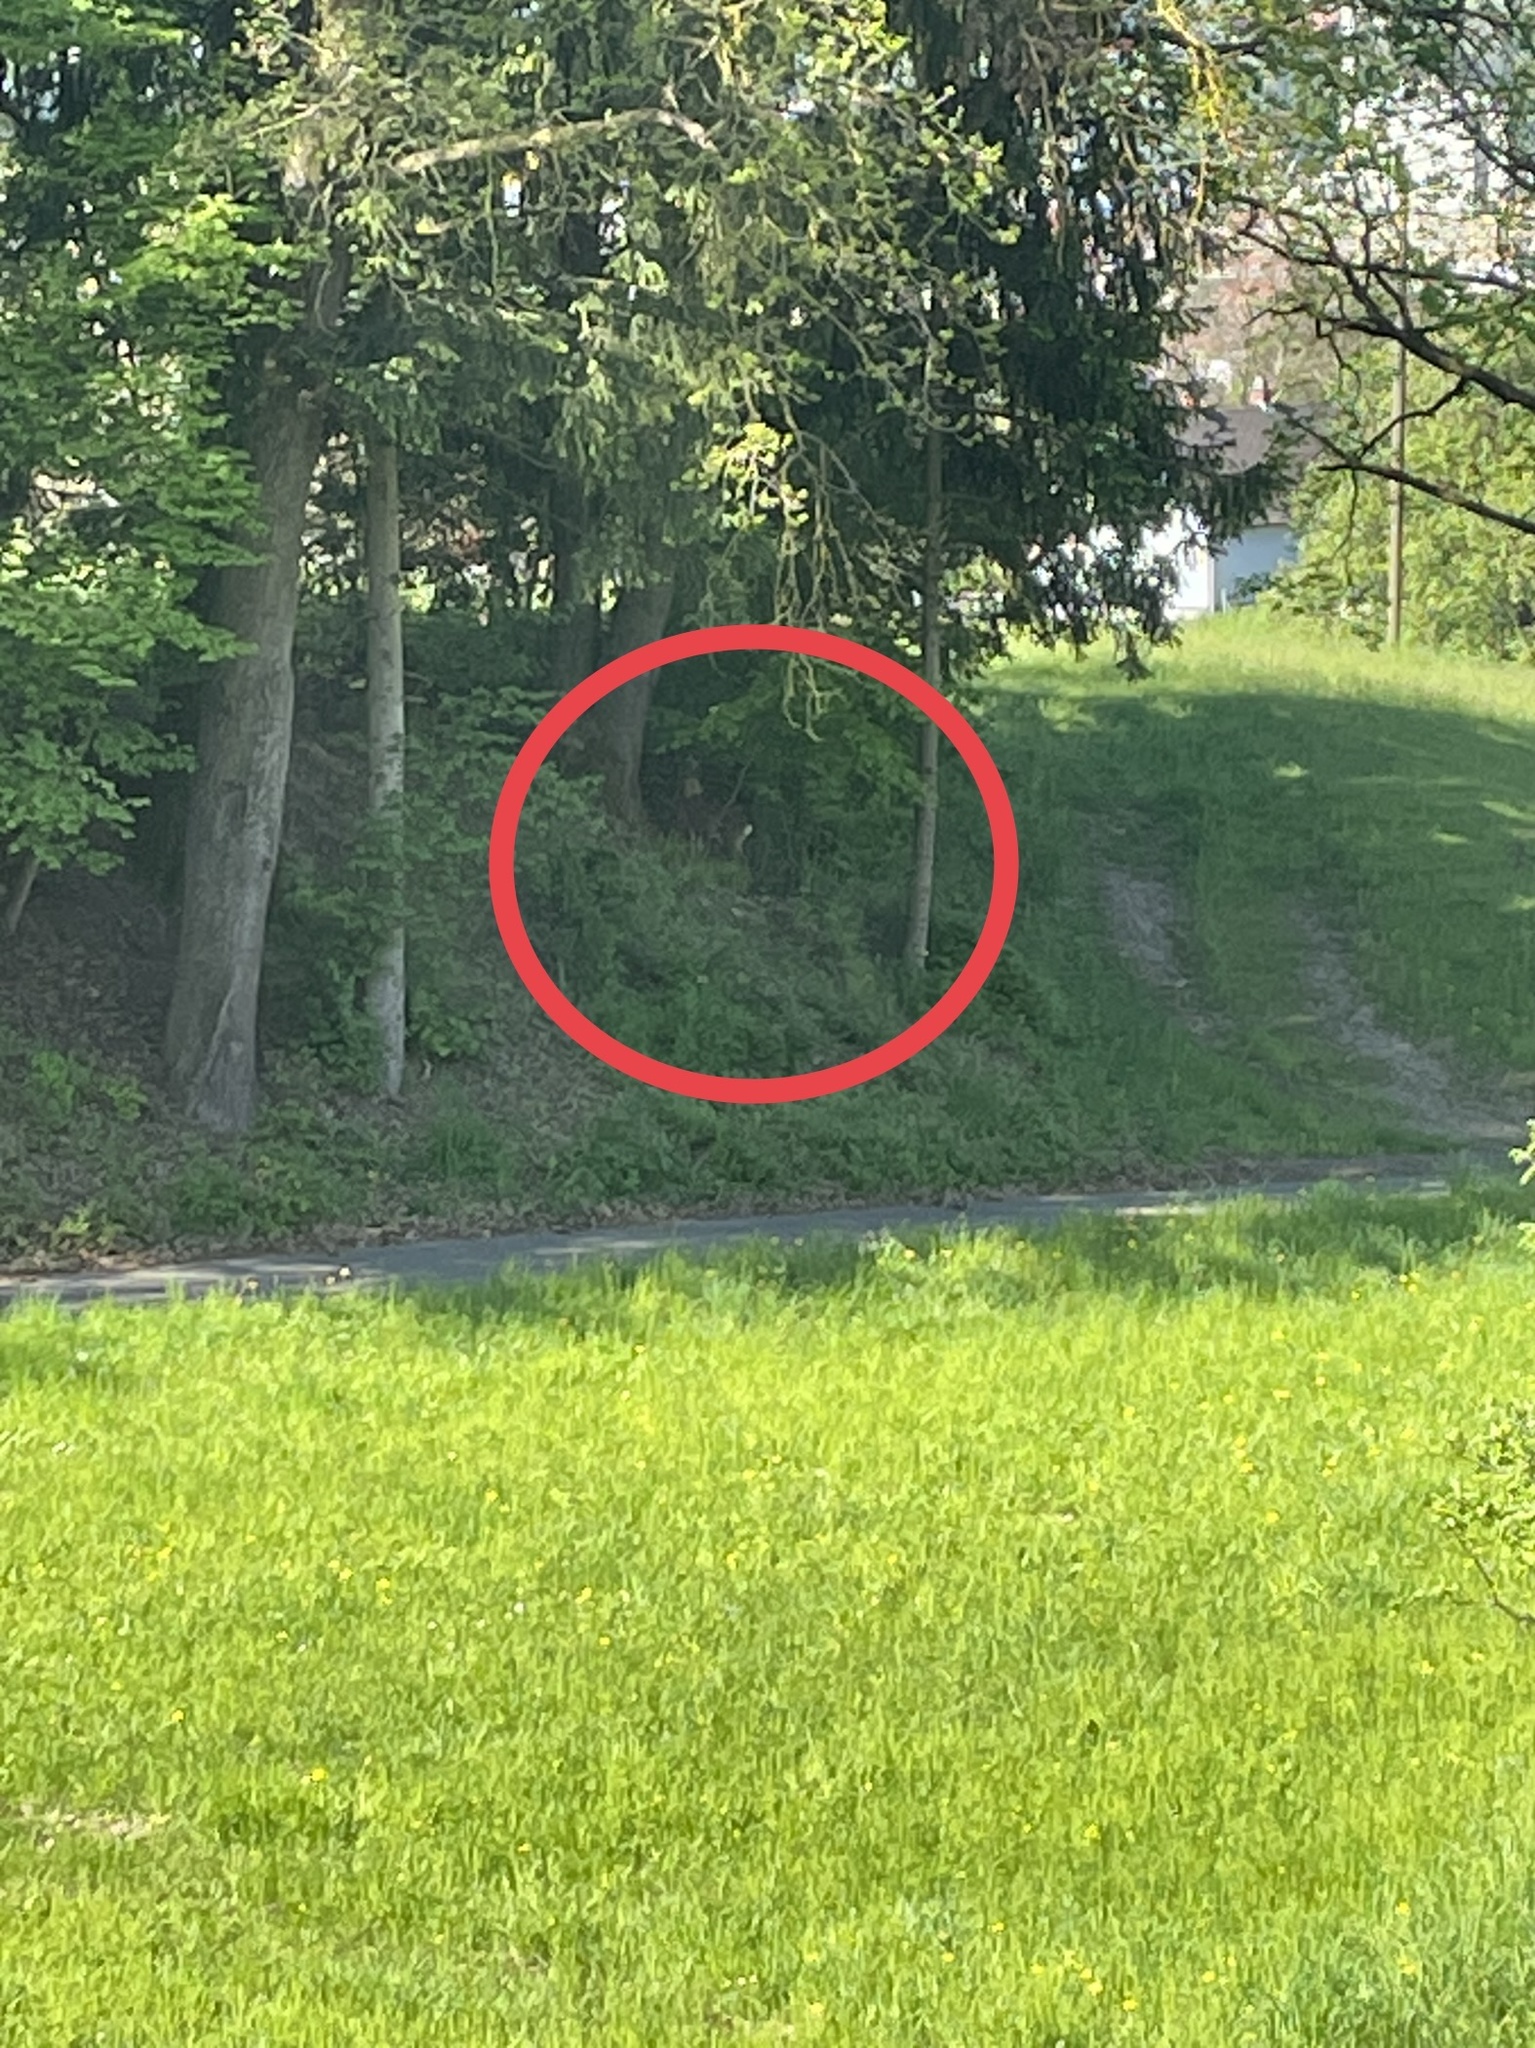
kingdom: Animalia
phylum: Chordata
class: Mammalia
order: Artiodactyla
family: Cervidae
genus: Capreolus
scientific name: Capreolus capreolus
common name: Western roe deer
